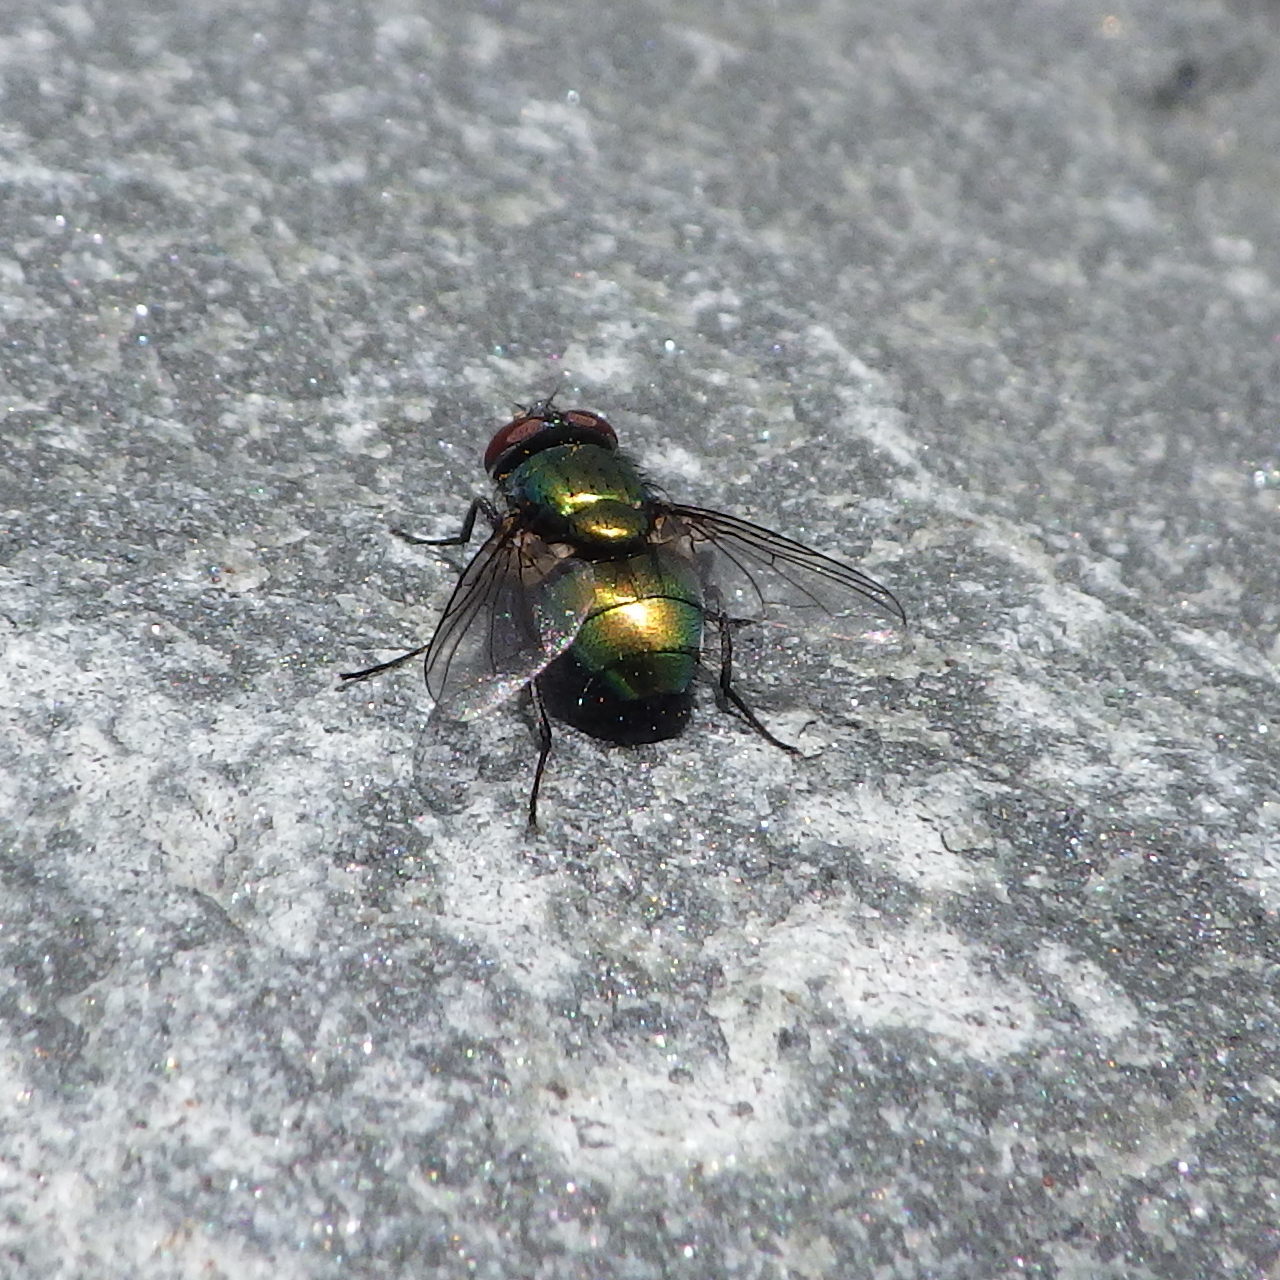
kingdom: Animalia
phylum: Arthropoda
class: Insecta
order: Diptera
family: Calliphoridae
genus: Lucilia
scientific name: Lucilia sericata
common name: Blow fly
